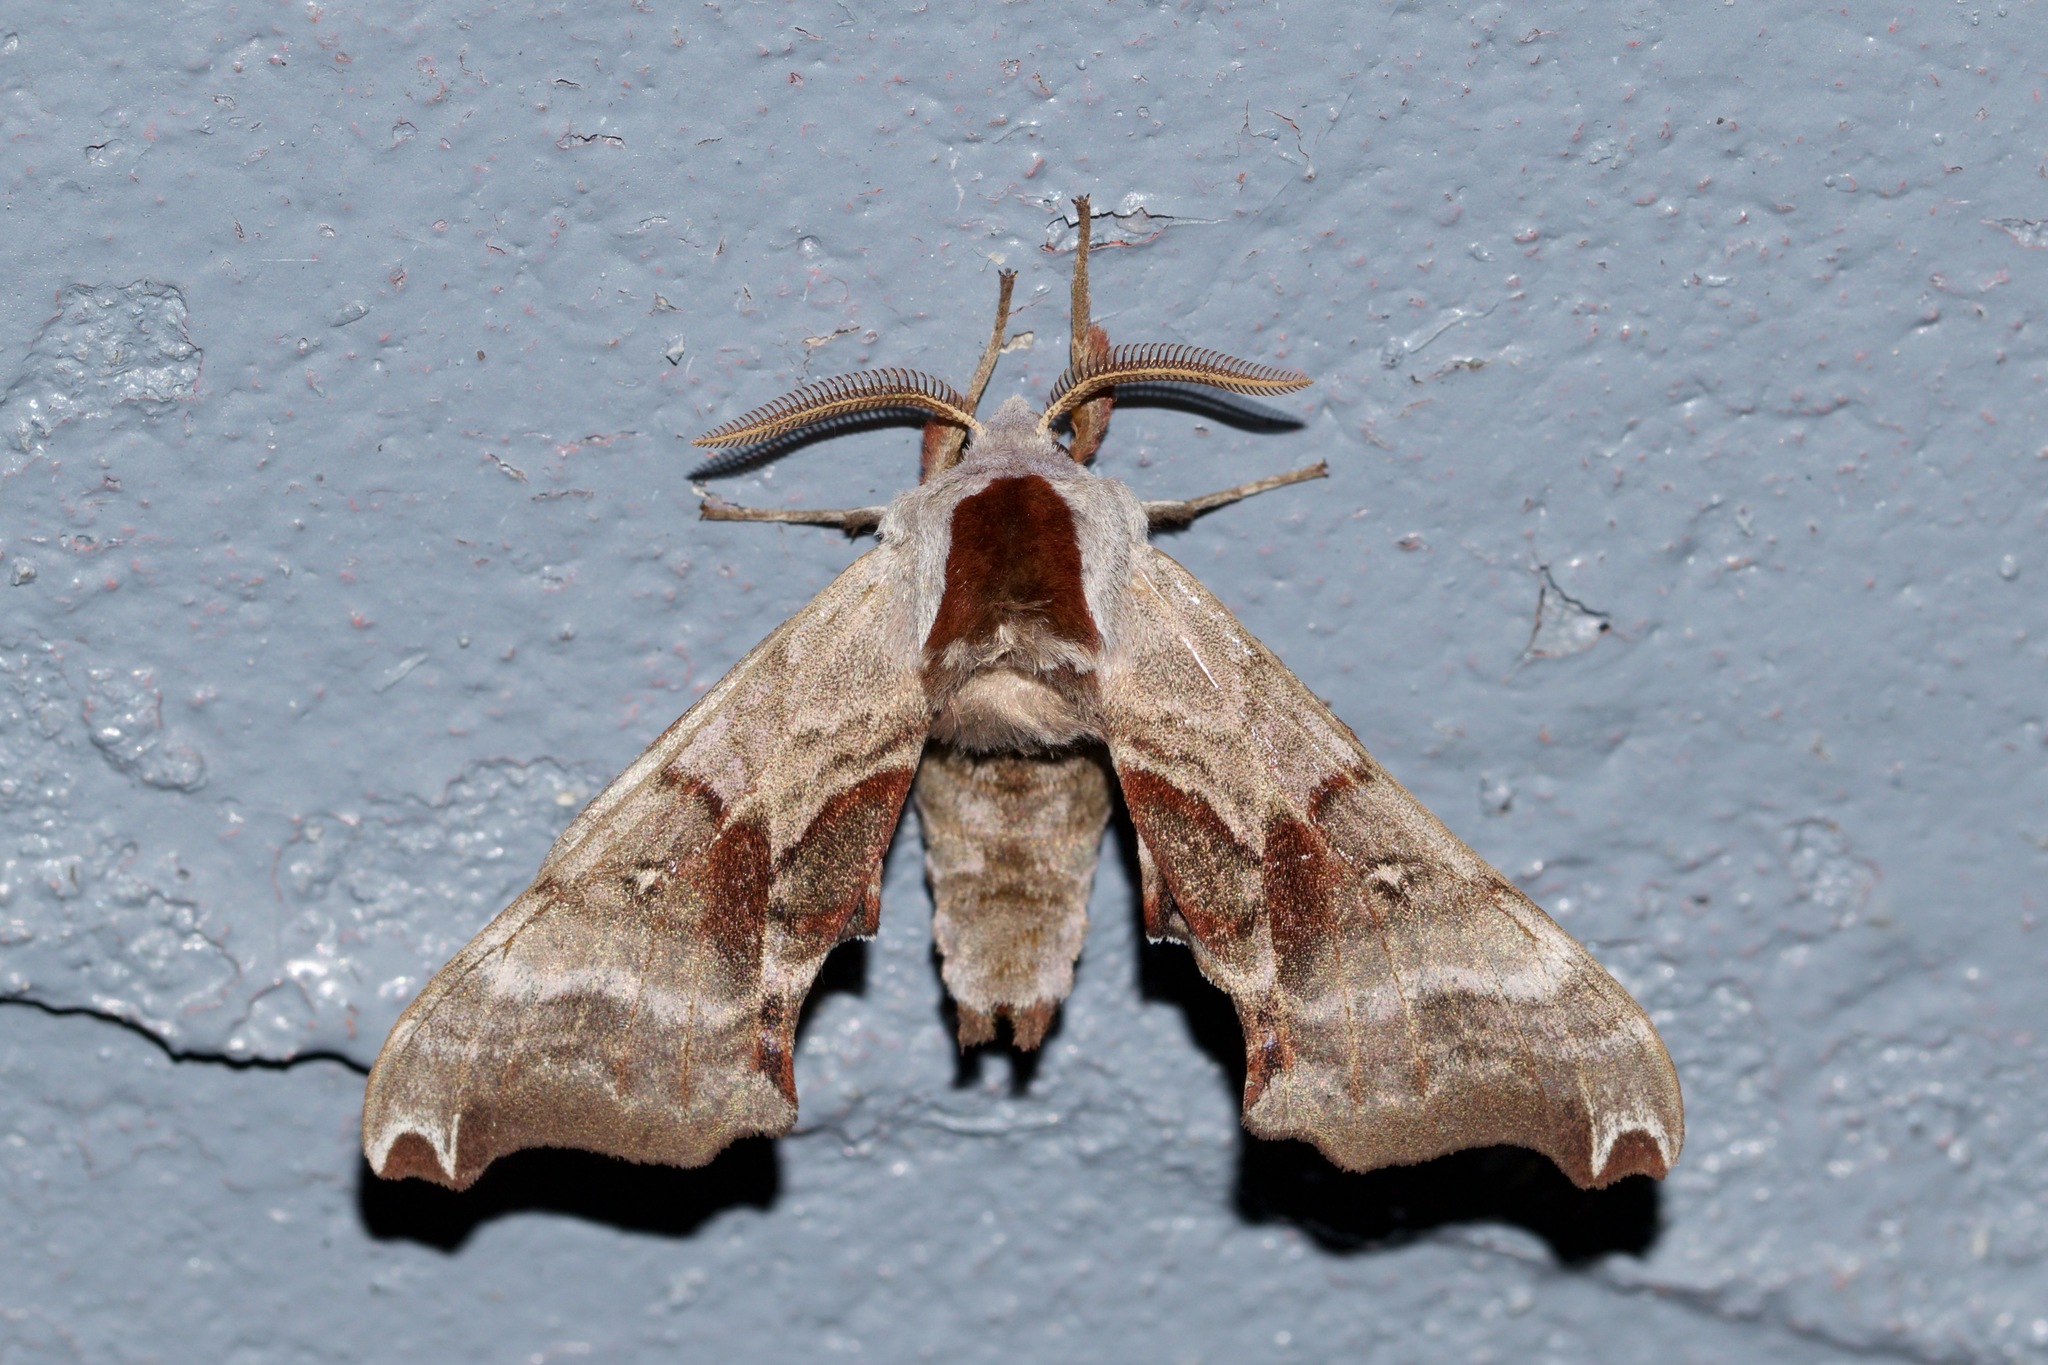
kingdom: Animalia
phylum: Arthropoda
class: Insecta
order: Lepidoptera
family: Sphingidae
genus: Smerinthus
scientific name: Smerinthus jamaicensis
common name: Twin spotted sphinx
